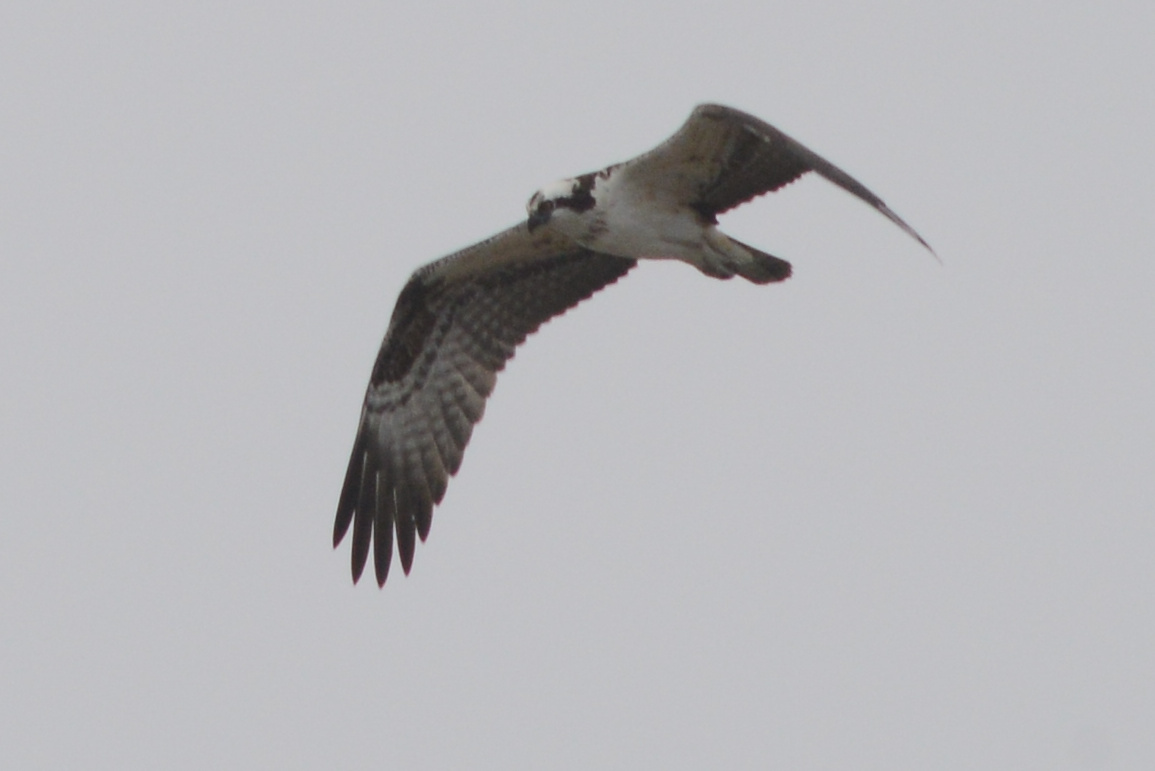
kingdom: Animalia
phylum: Chordata
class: Aves
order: Accipitriformes
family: Pandionidae
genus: Pandion
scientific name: Pandion haliaetus
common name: Osprey
